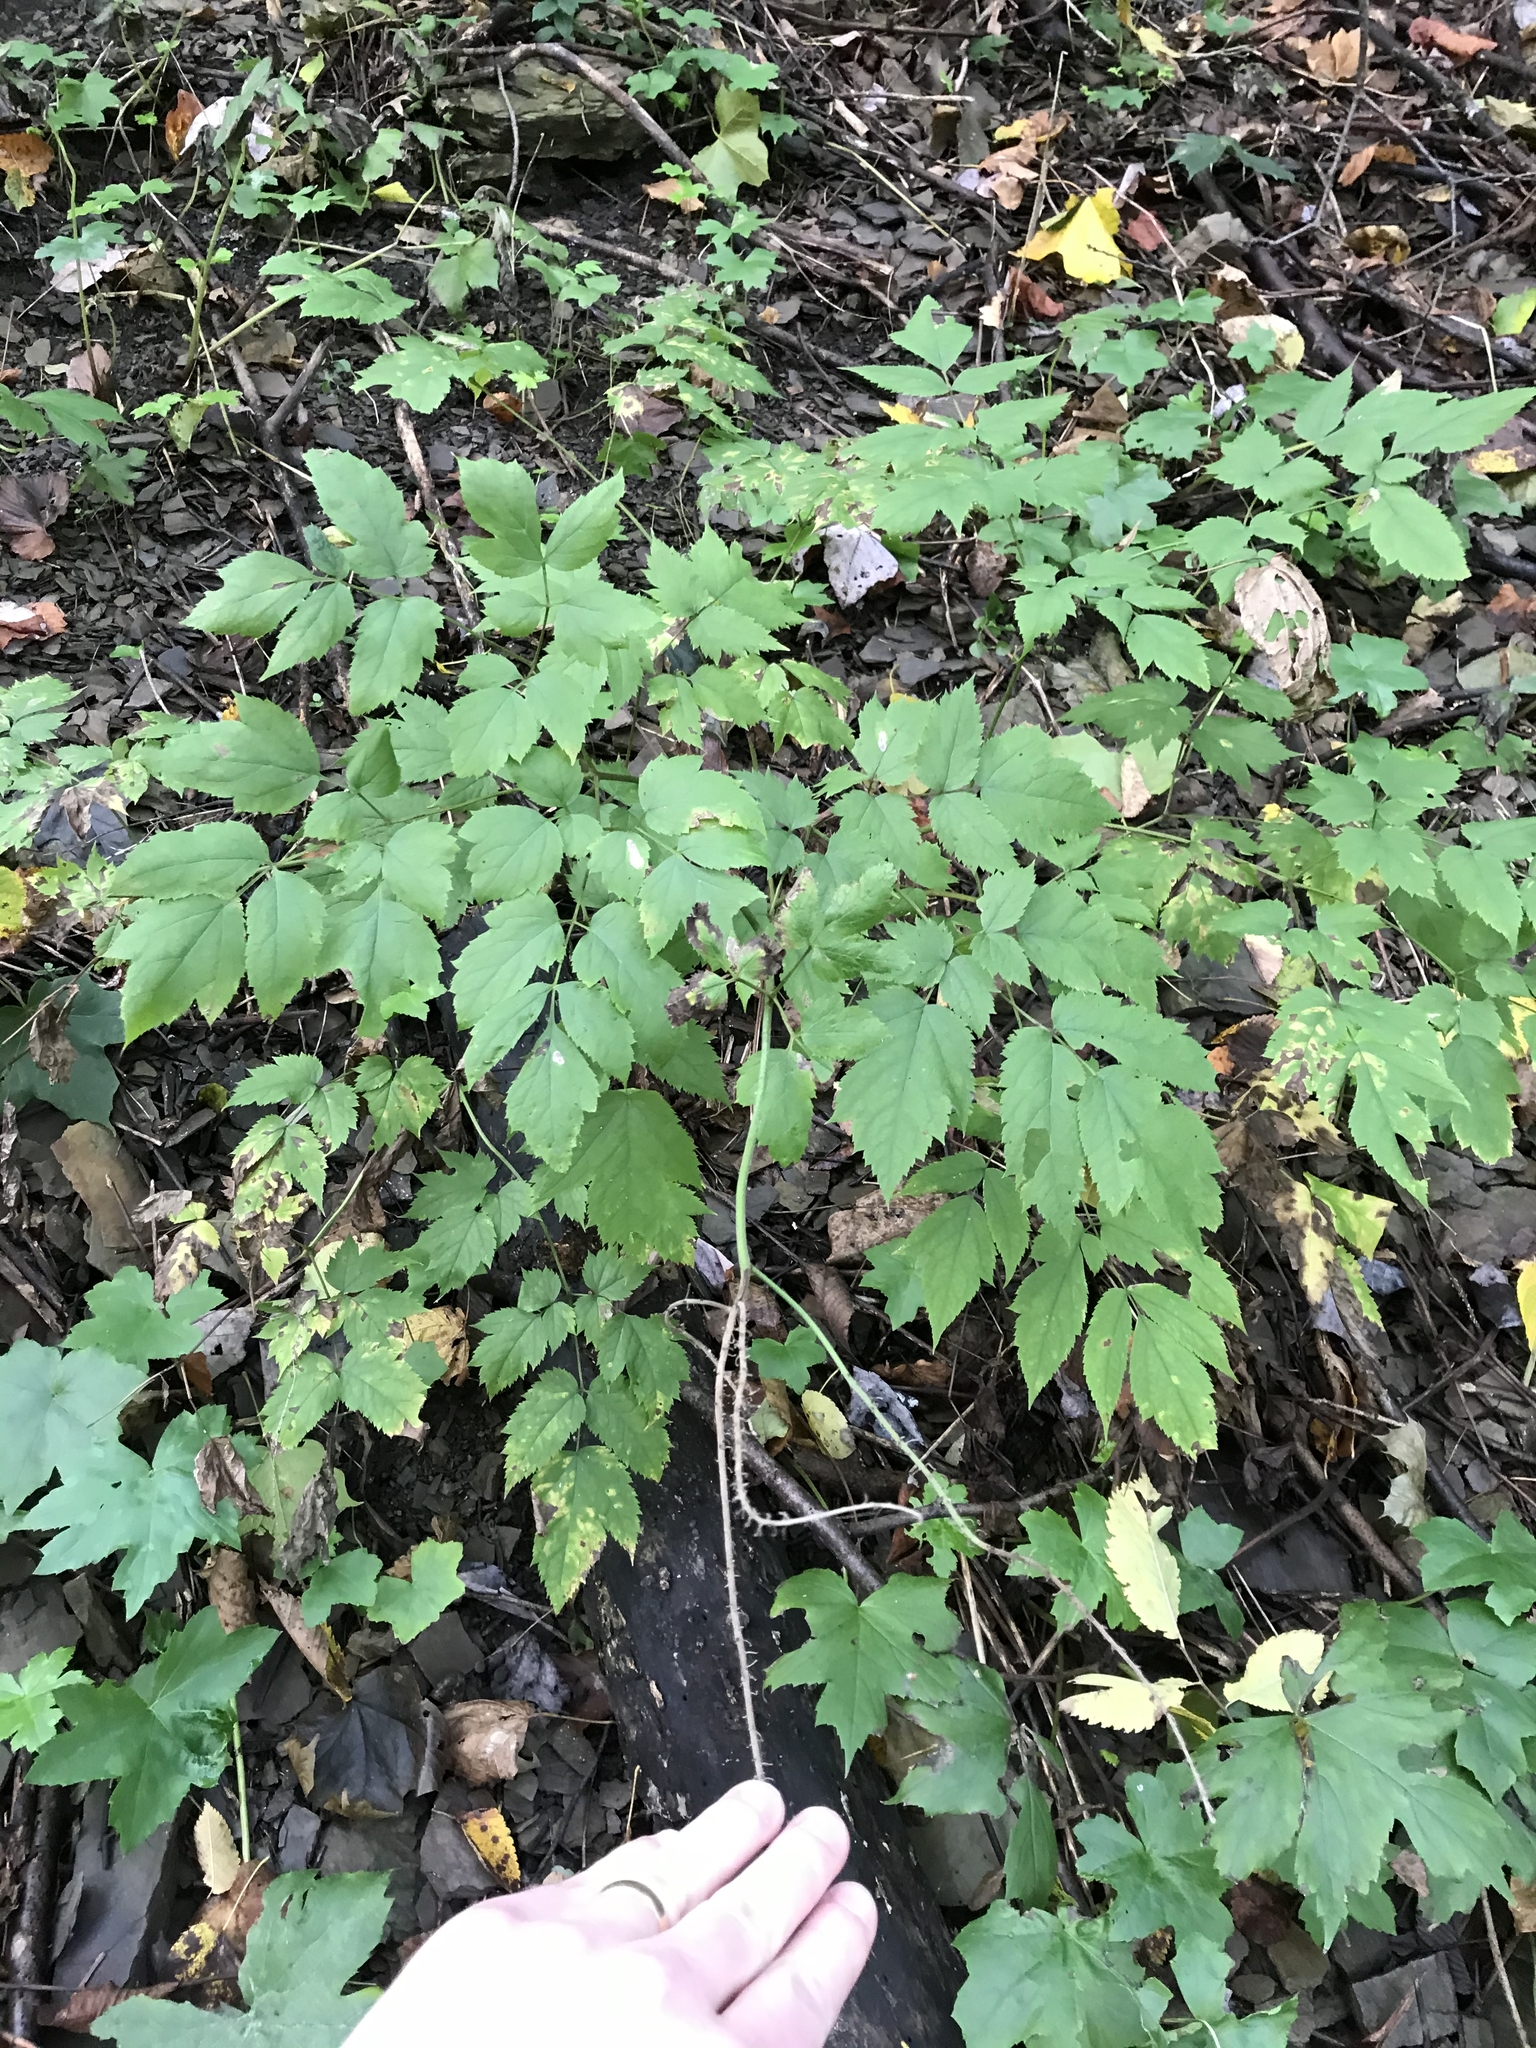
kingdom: Plantae
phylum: Tracheophyta
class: Magnoliopsida
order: Ranunculales
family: Ranunculaceae
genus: Actaea
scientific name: Actaea racemosa
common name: Black cohosh
